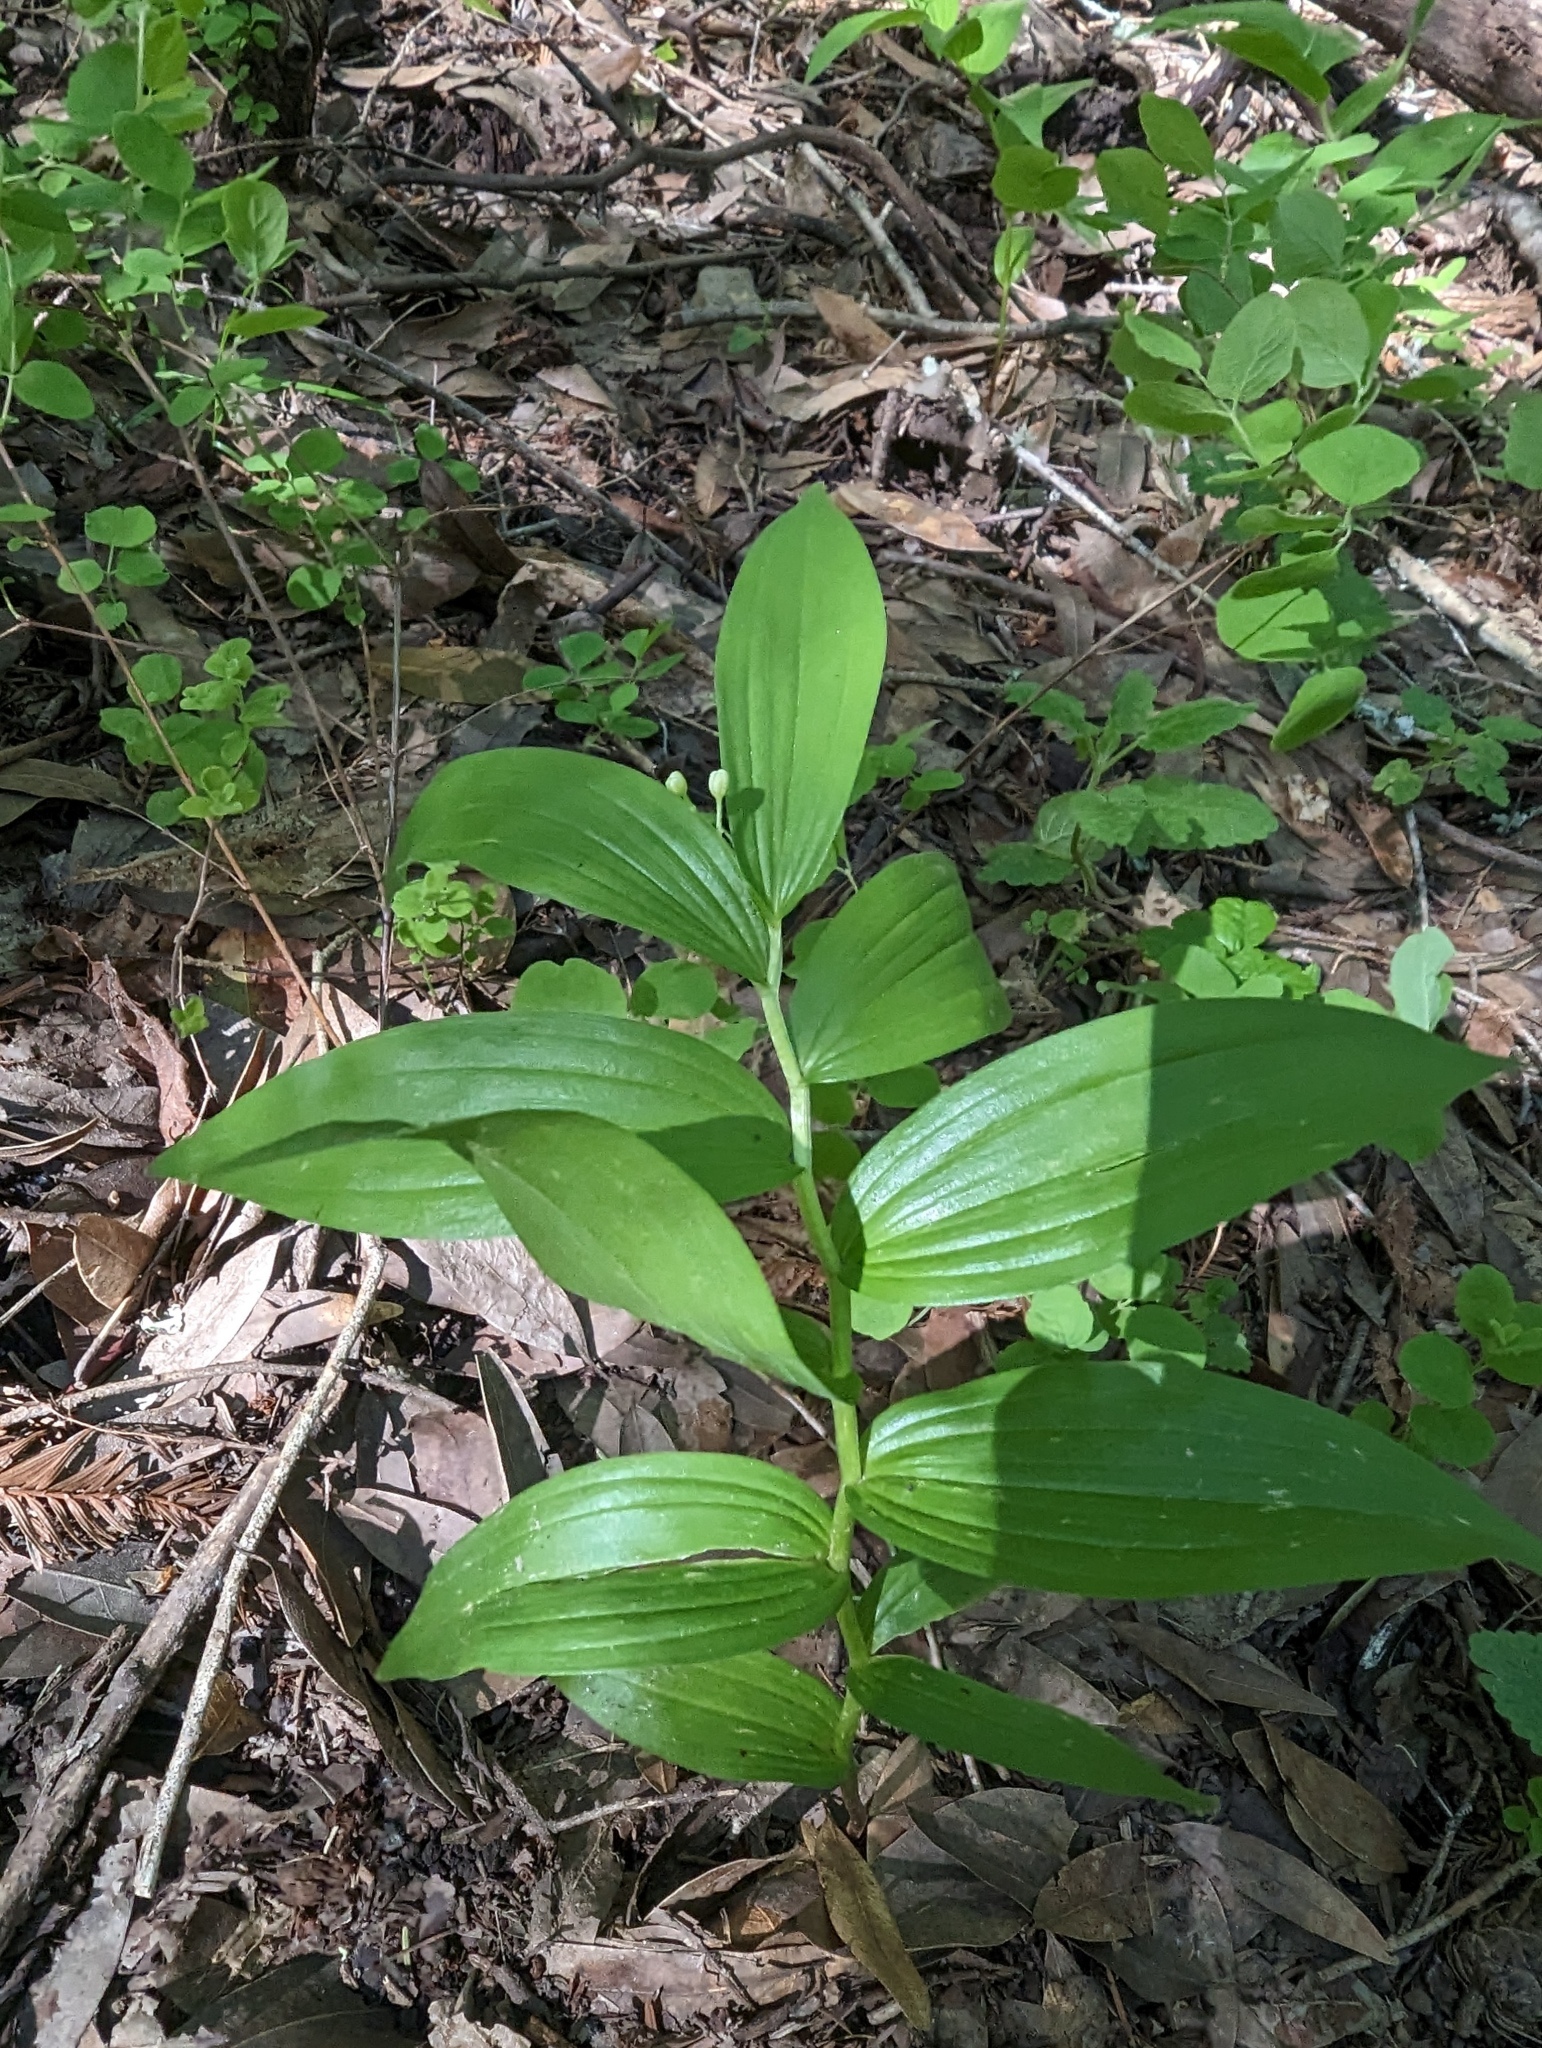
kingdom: Plantae
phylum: Tracheophyta
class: Liliopsida
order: Asparagales
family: Asparagaceae
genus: Maianthemum
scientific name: Maianthemum stellatum
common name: Little false solomon's seal
